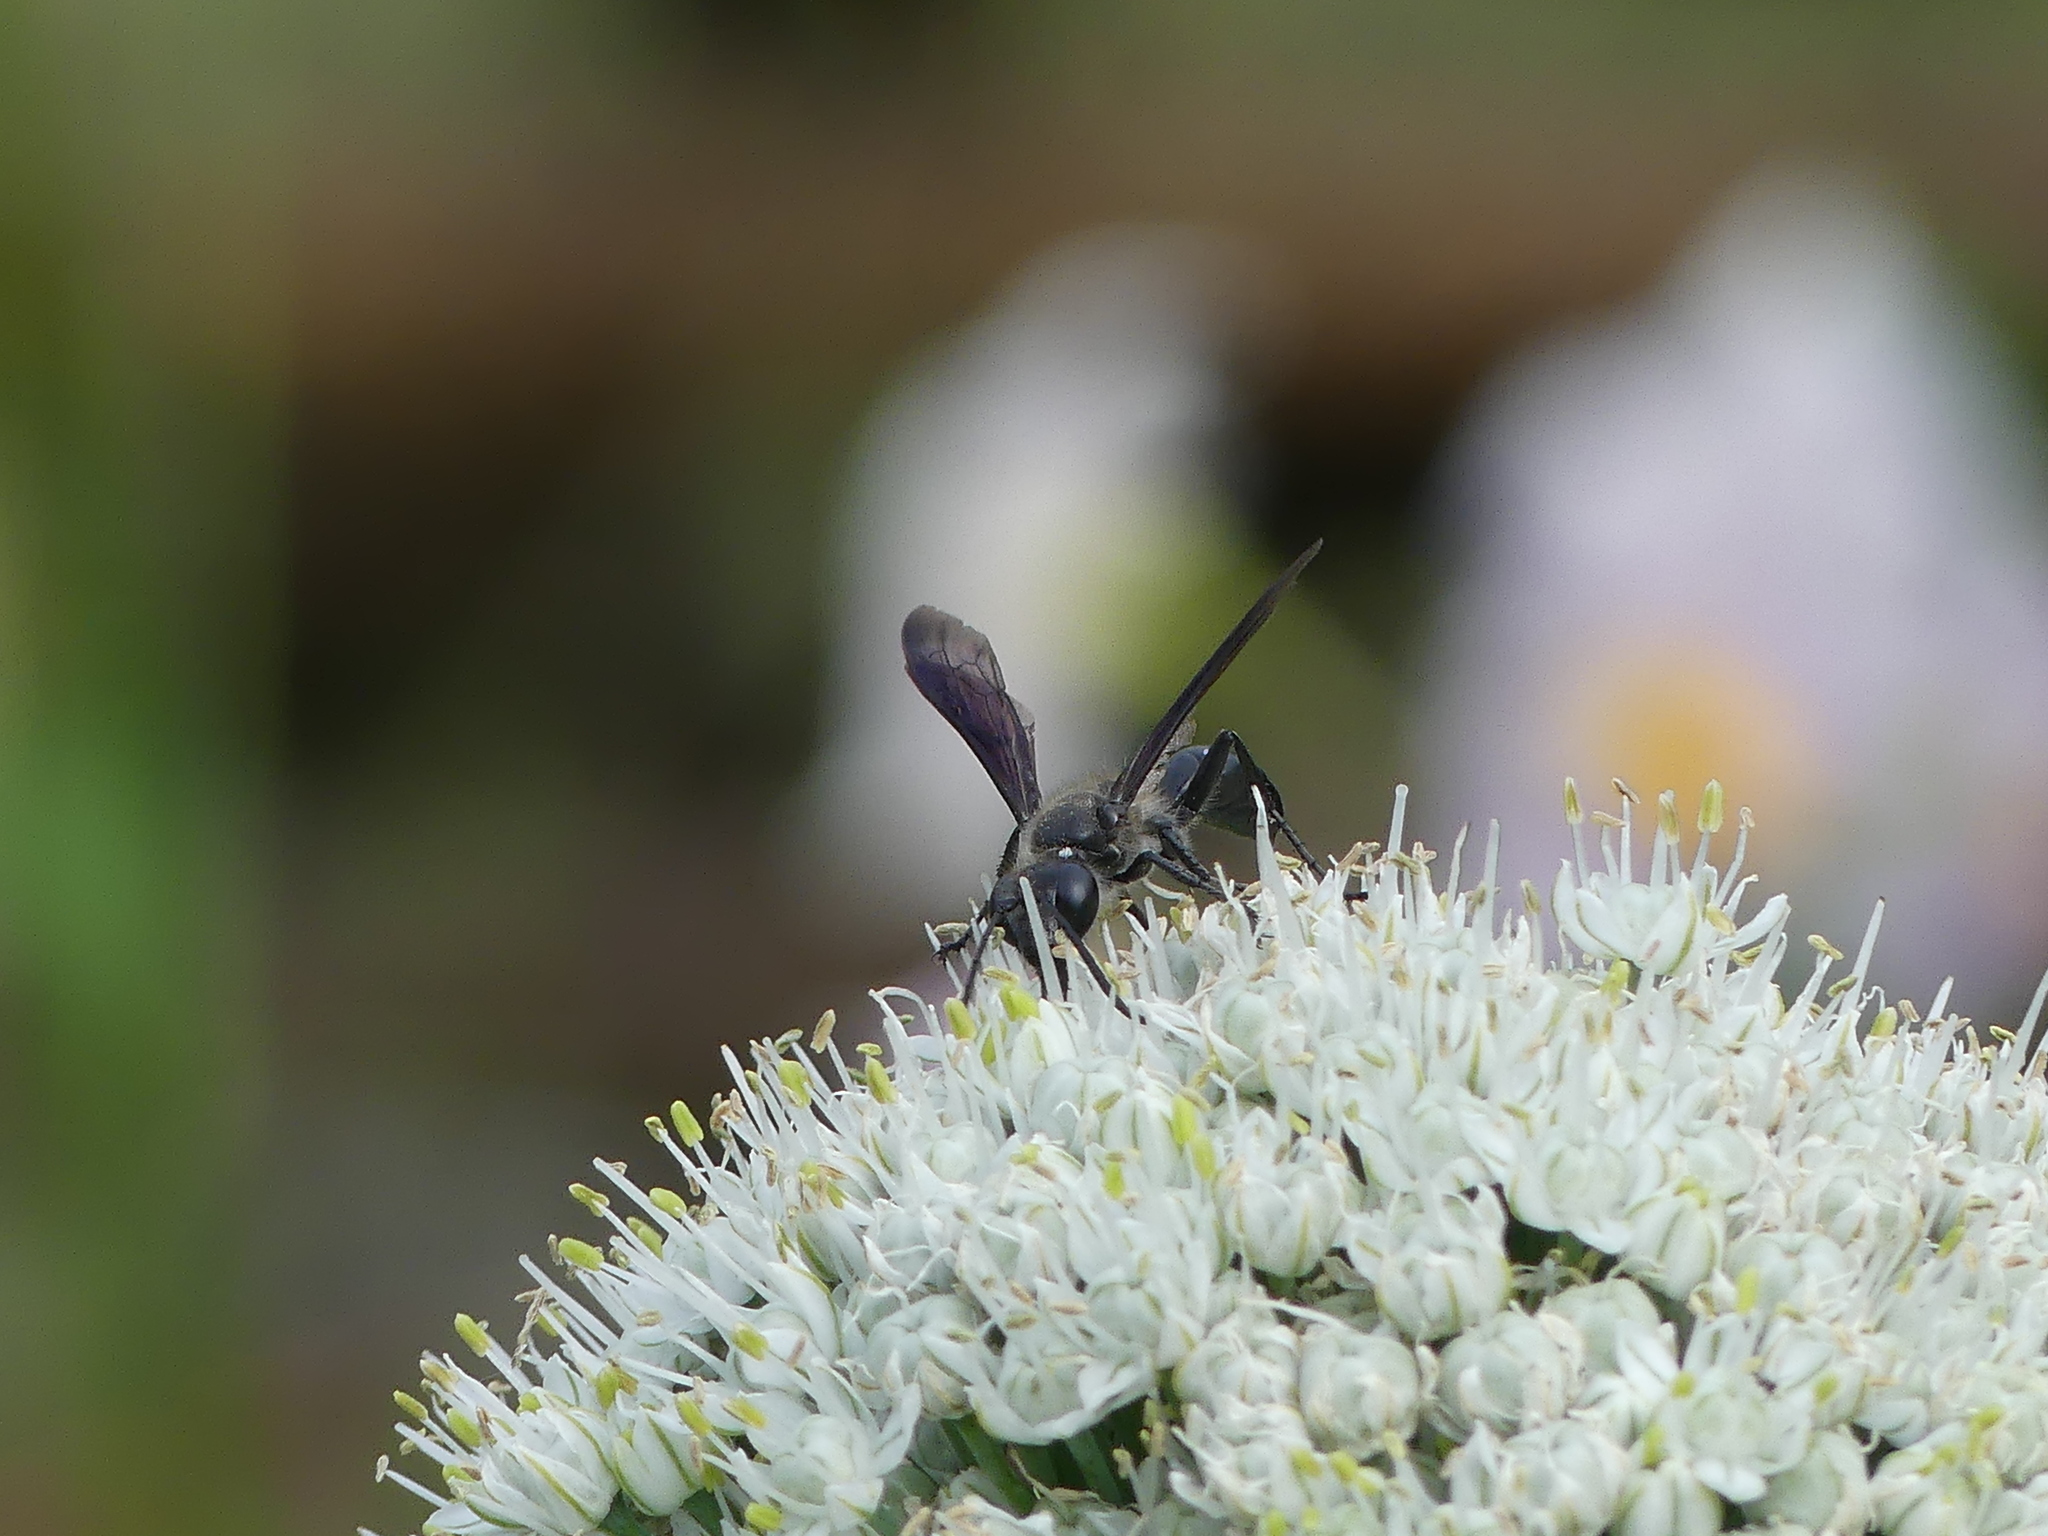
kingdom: Animalia
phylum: Arthropoda
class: Insecta
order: Hymenoptera
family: Sphecidae
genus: Isodontia
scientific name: Isodontia mexicana
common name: Mud dauber
